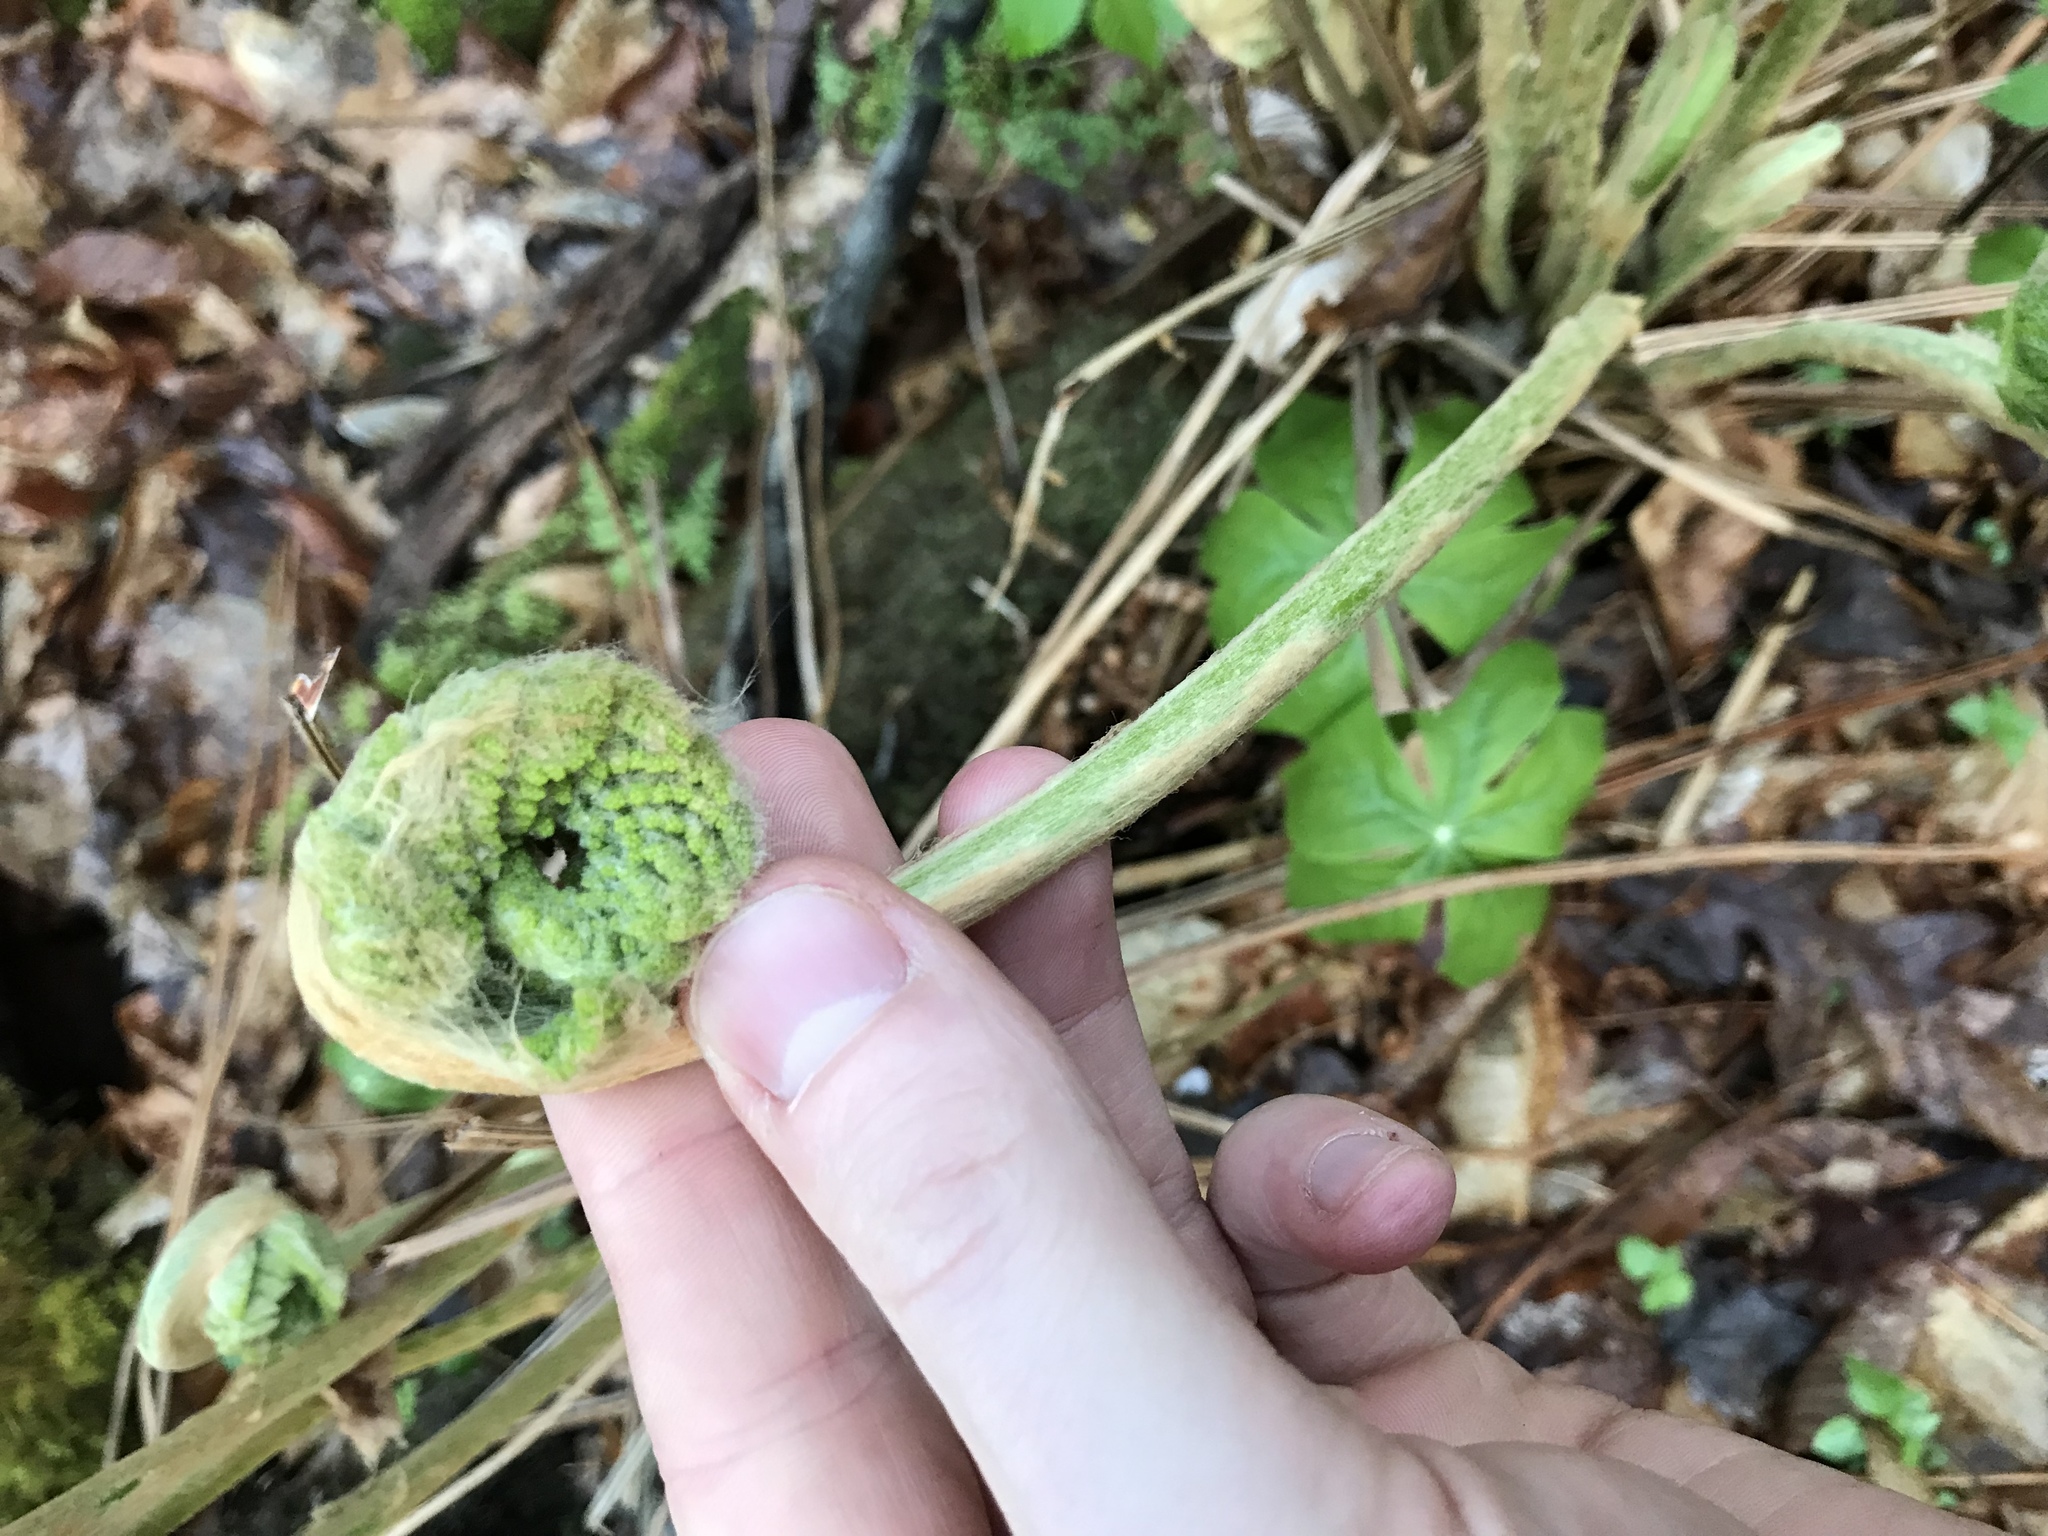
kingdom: Plantae
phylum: Tracheophyta
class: Polypodiopsida
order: Osmundales
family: Osmundaceae
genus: Osmundastrum
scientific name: Osmundastrum cinnamomeum
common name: Cinnamon fern
